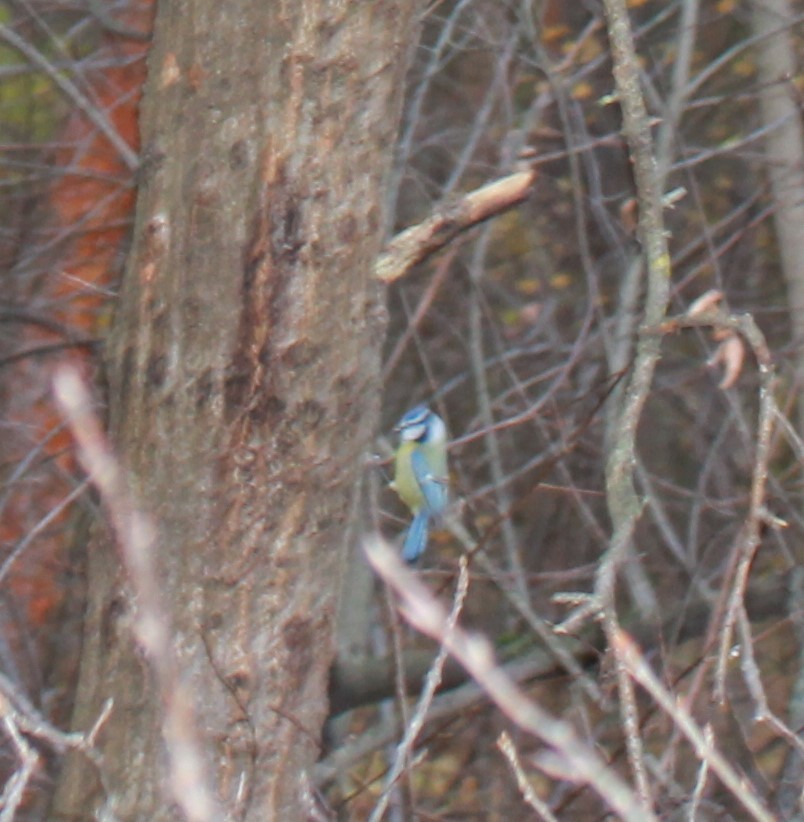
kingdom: Animalia
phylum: Chordata
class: Aves
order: Passeriformes
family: Paridae
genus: Cyanistes
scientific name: Cyanistes caeruleus
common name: Eurasian blue tit
